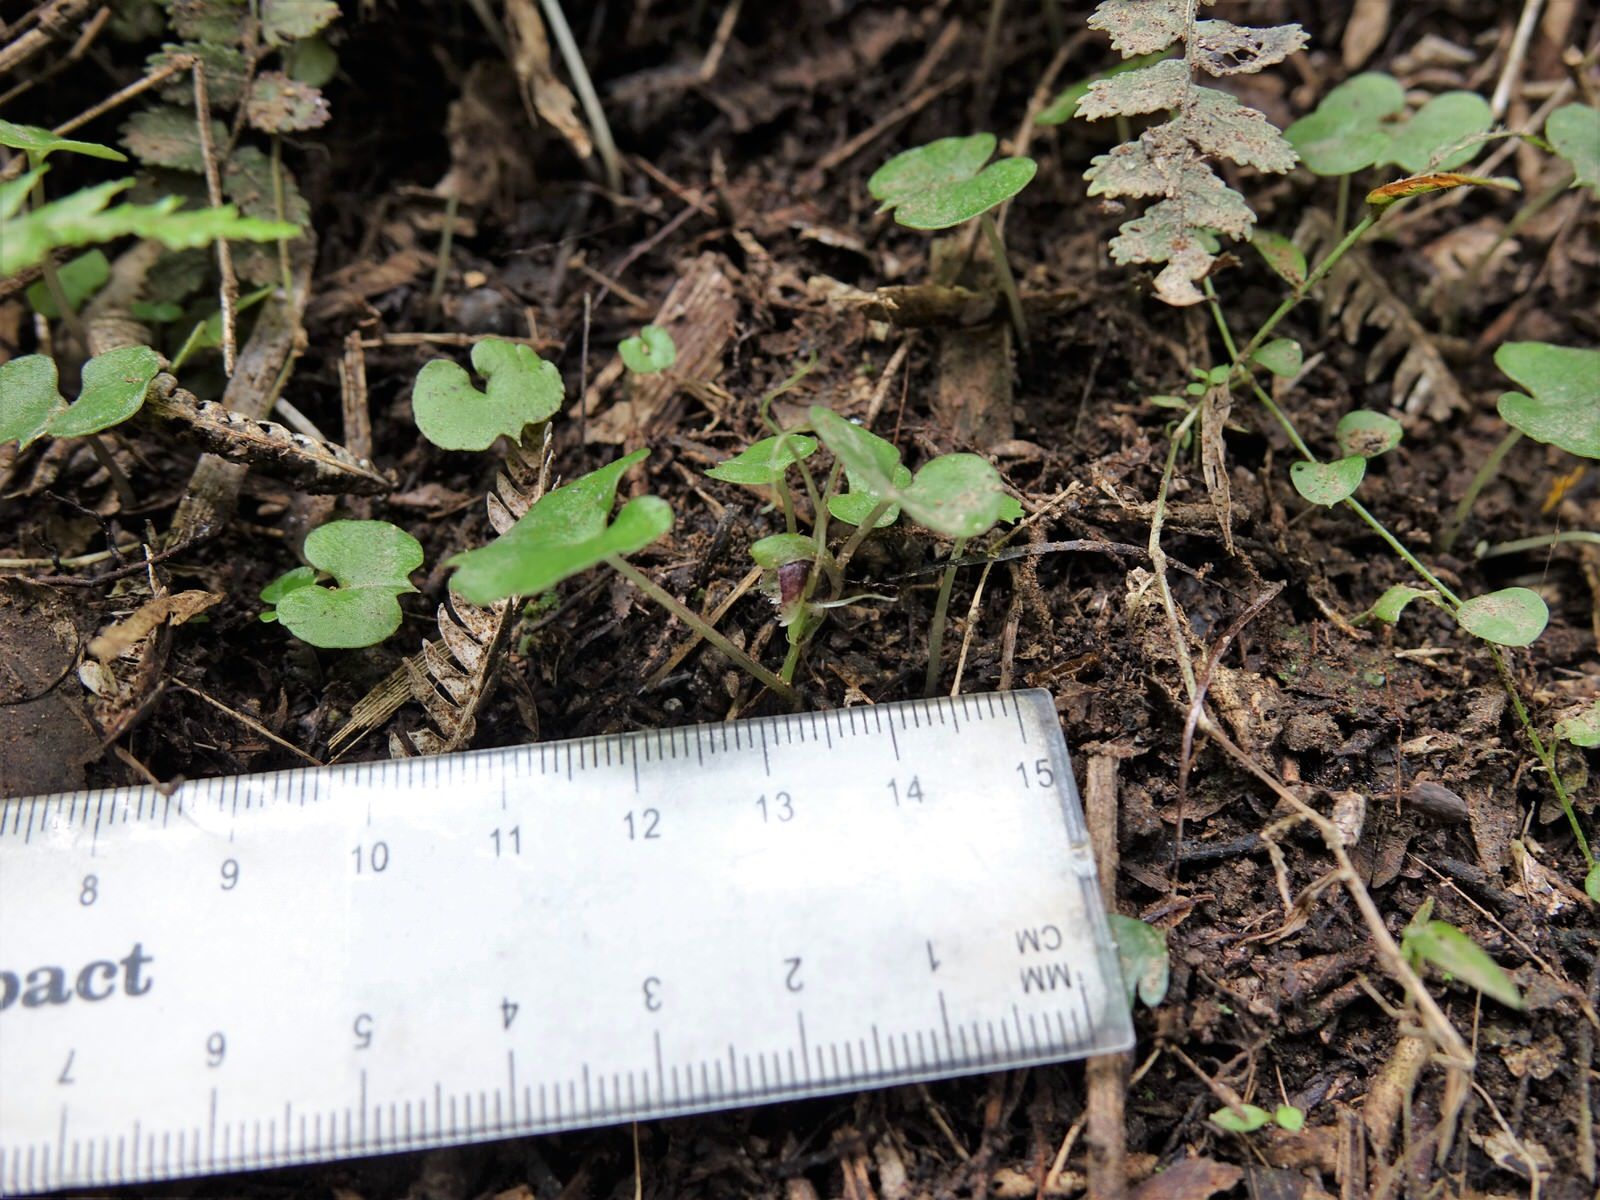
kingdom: Plantae
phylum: Tracheophyta
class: Liliopsida
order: Asparagales
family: Orchidaceae
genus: Corybas
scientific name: Corybas trilobus
